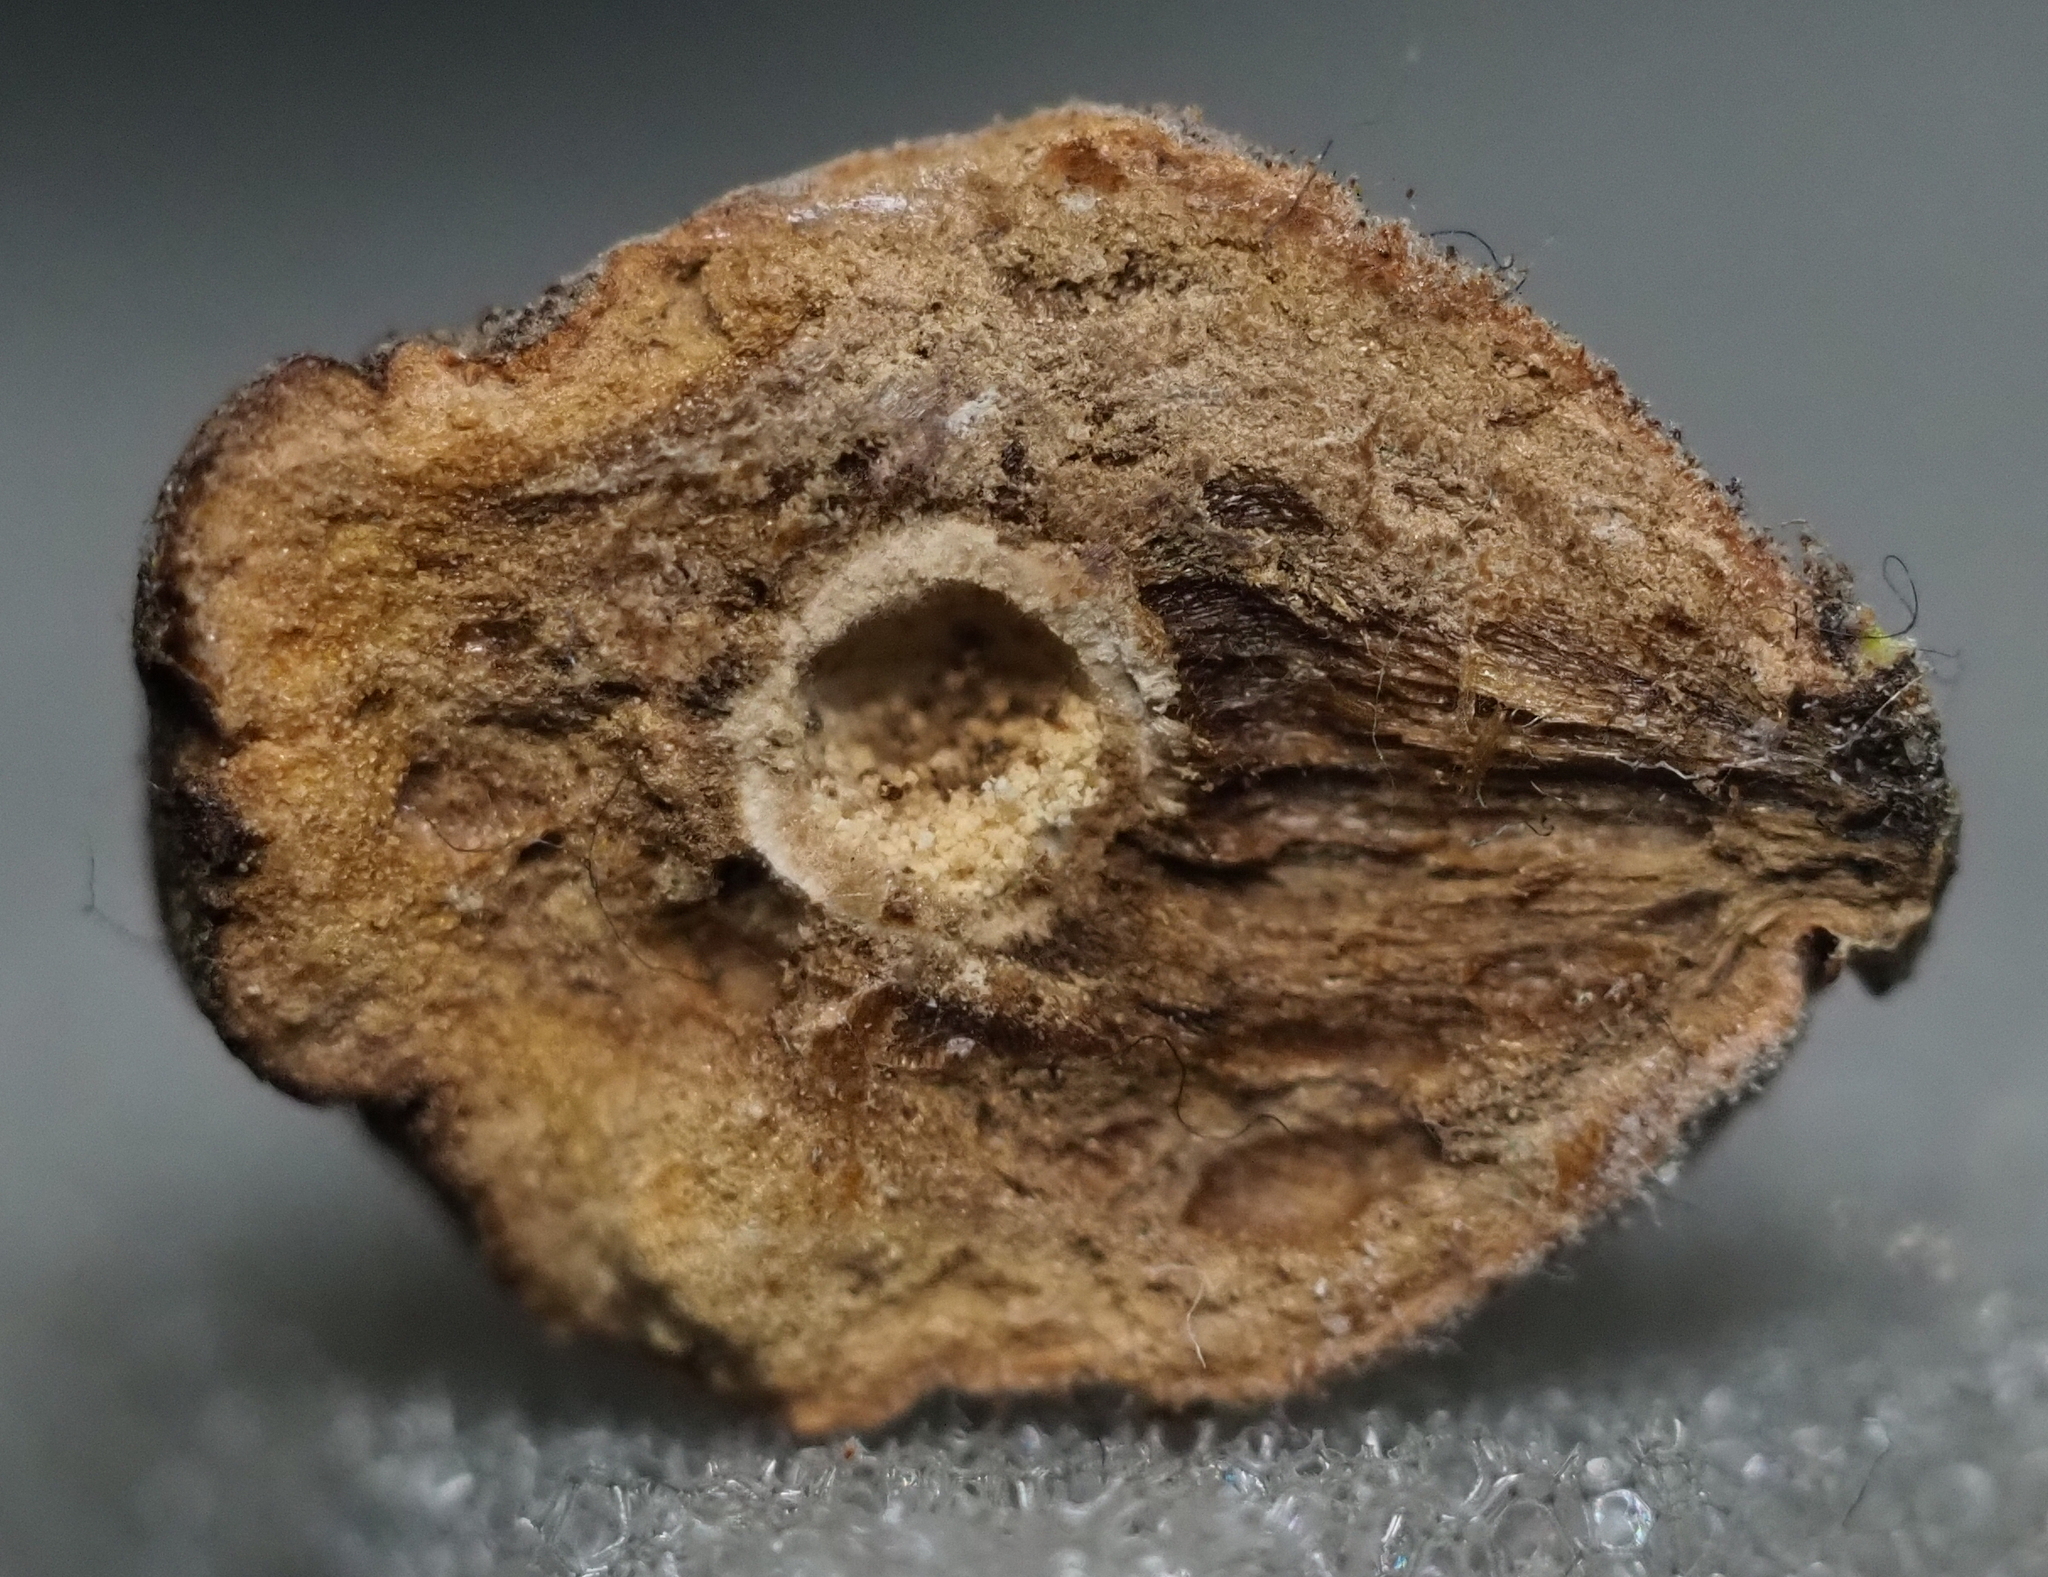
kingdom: Animalia
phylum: Arthropoda
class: Insecta
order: Hymenoptera
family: Cynipidae
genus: Disholcaspis
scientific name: Disholcaspis
